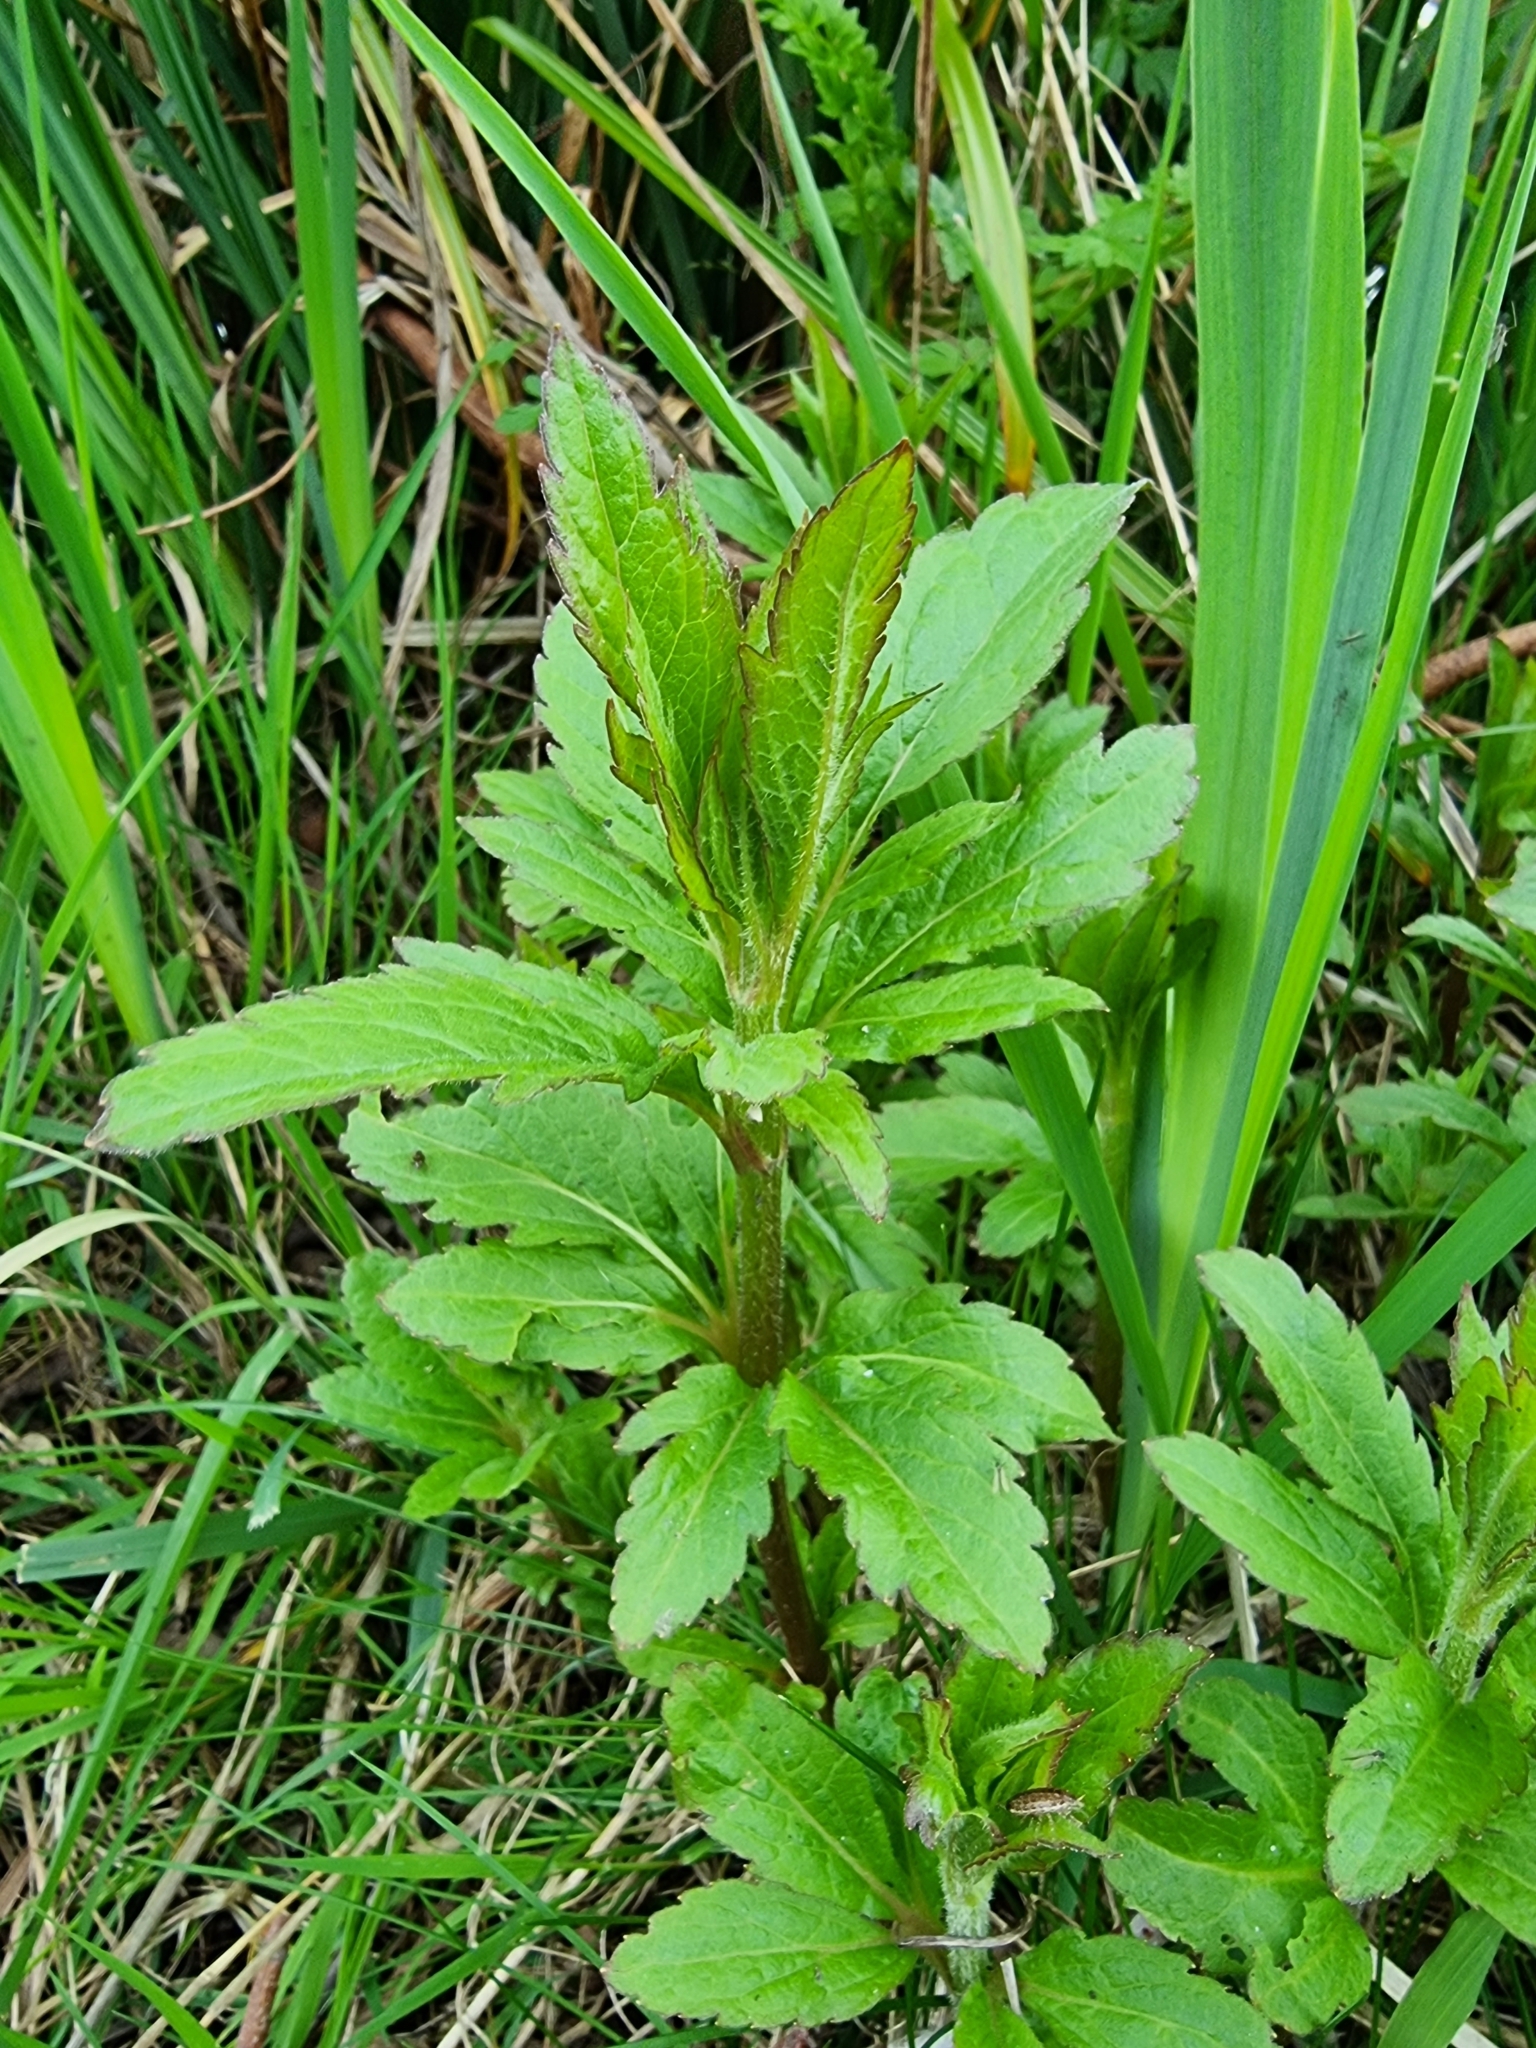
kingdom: Plantae
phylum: Tracheophyta
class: Magnoliopsida
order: Asterales
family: Asteraceae
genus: Eupatorium
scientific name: Eupatorium cannabinum
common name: Hemp-agrimony
